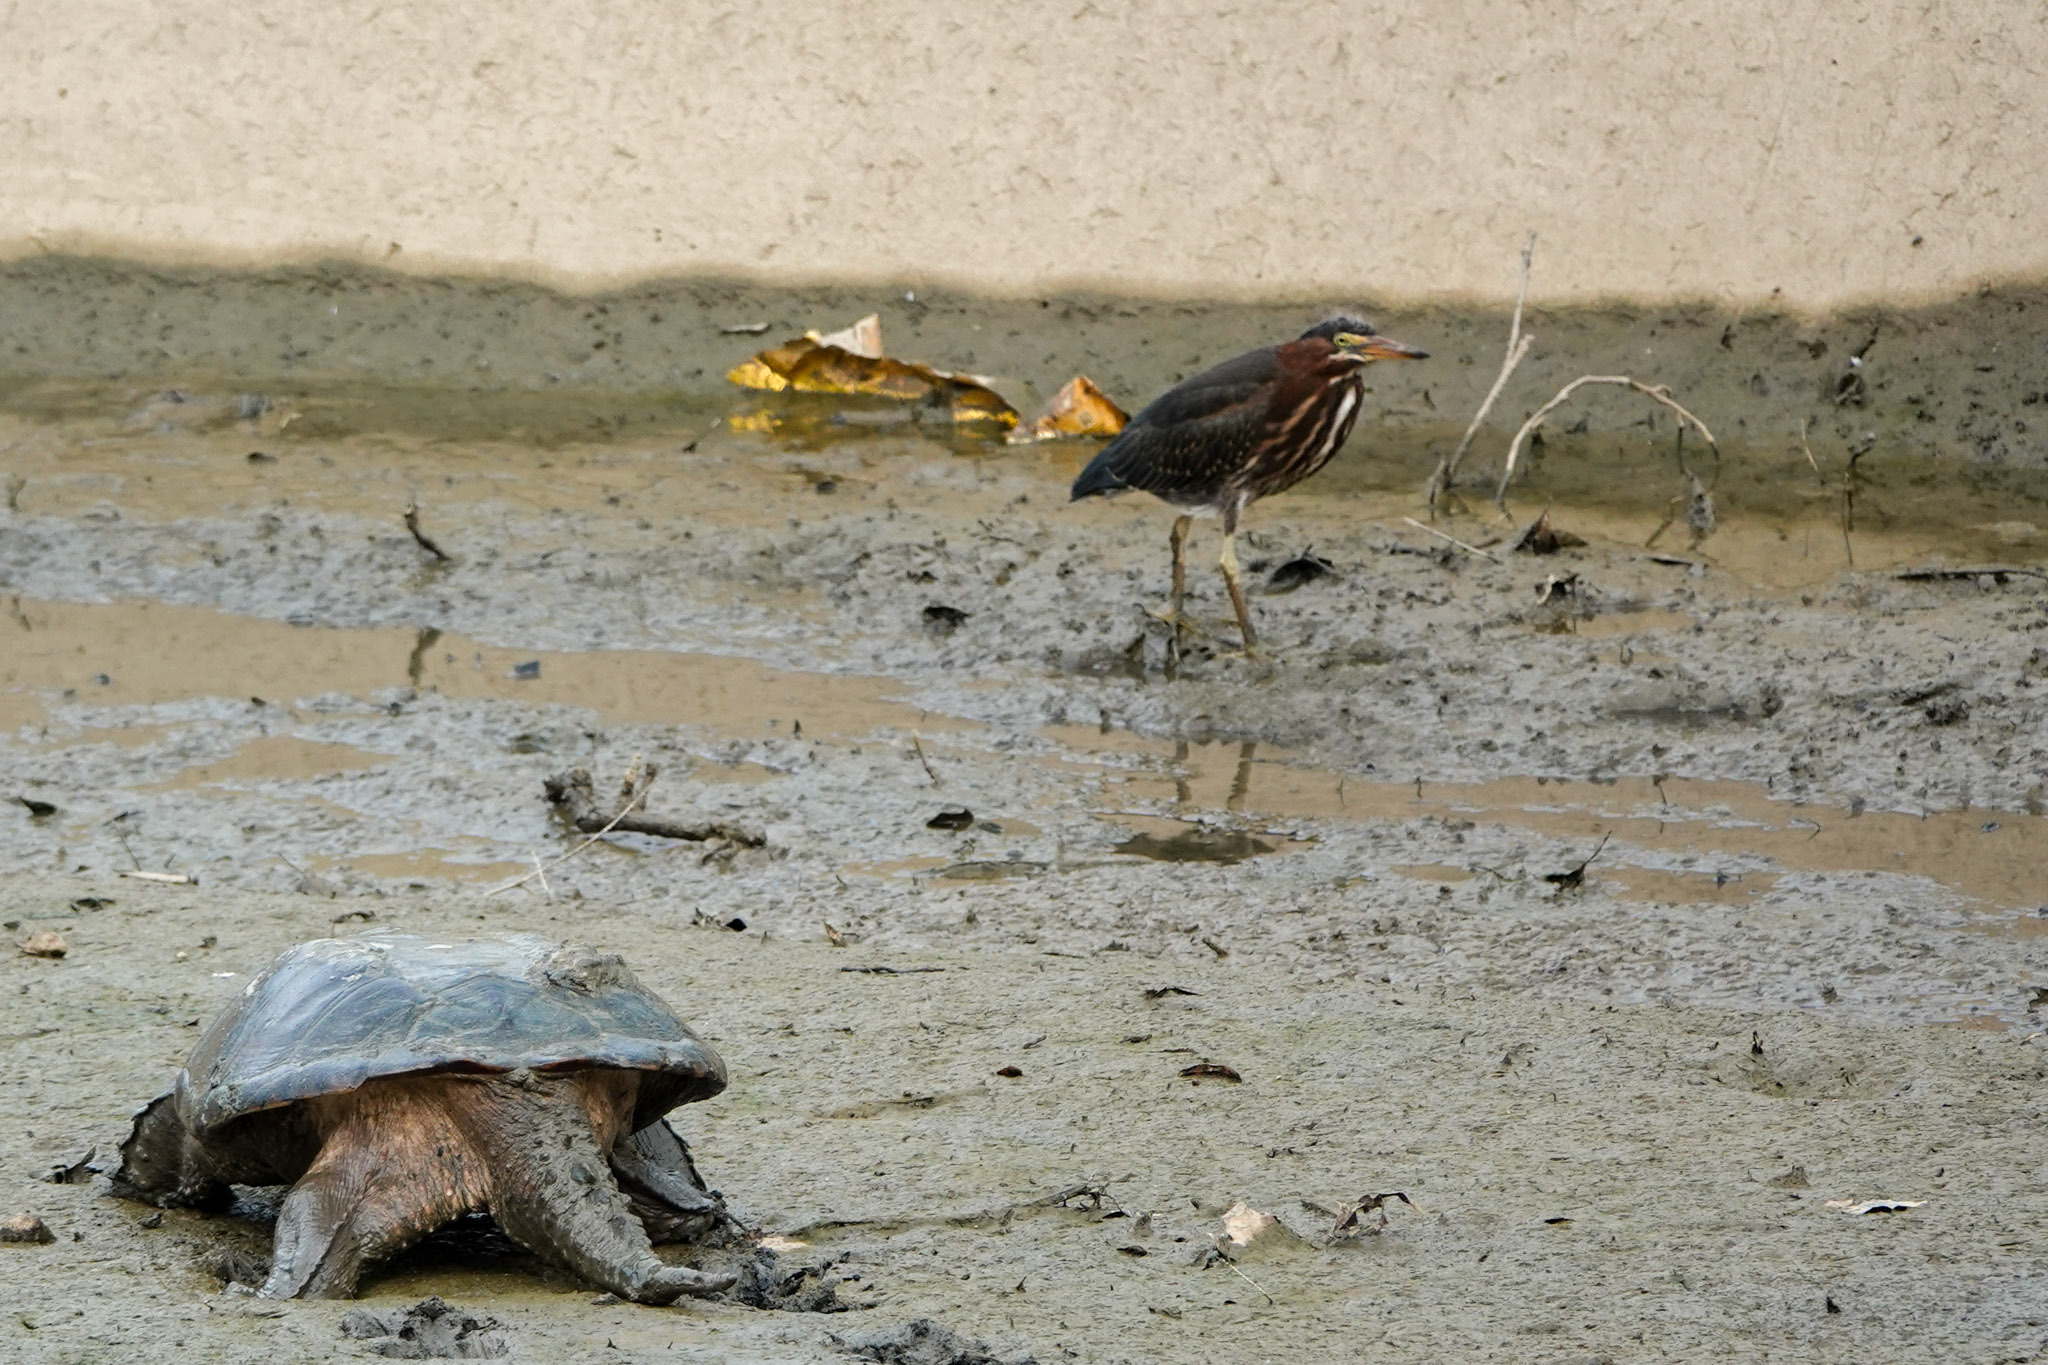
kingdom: Animalia
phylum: Chordata
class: Aves
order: Pelecaniformes
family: Ardeidae
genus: Butorides
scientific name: Butorides virescens
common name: Green heron
